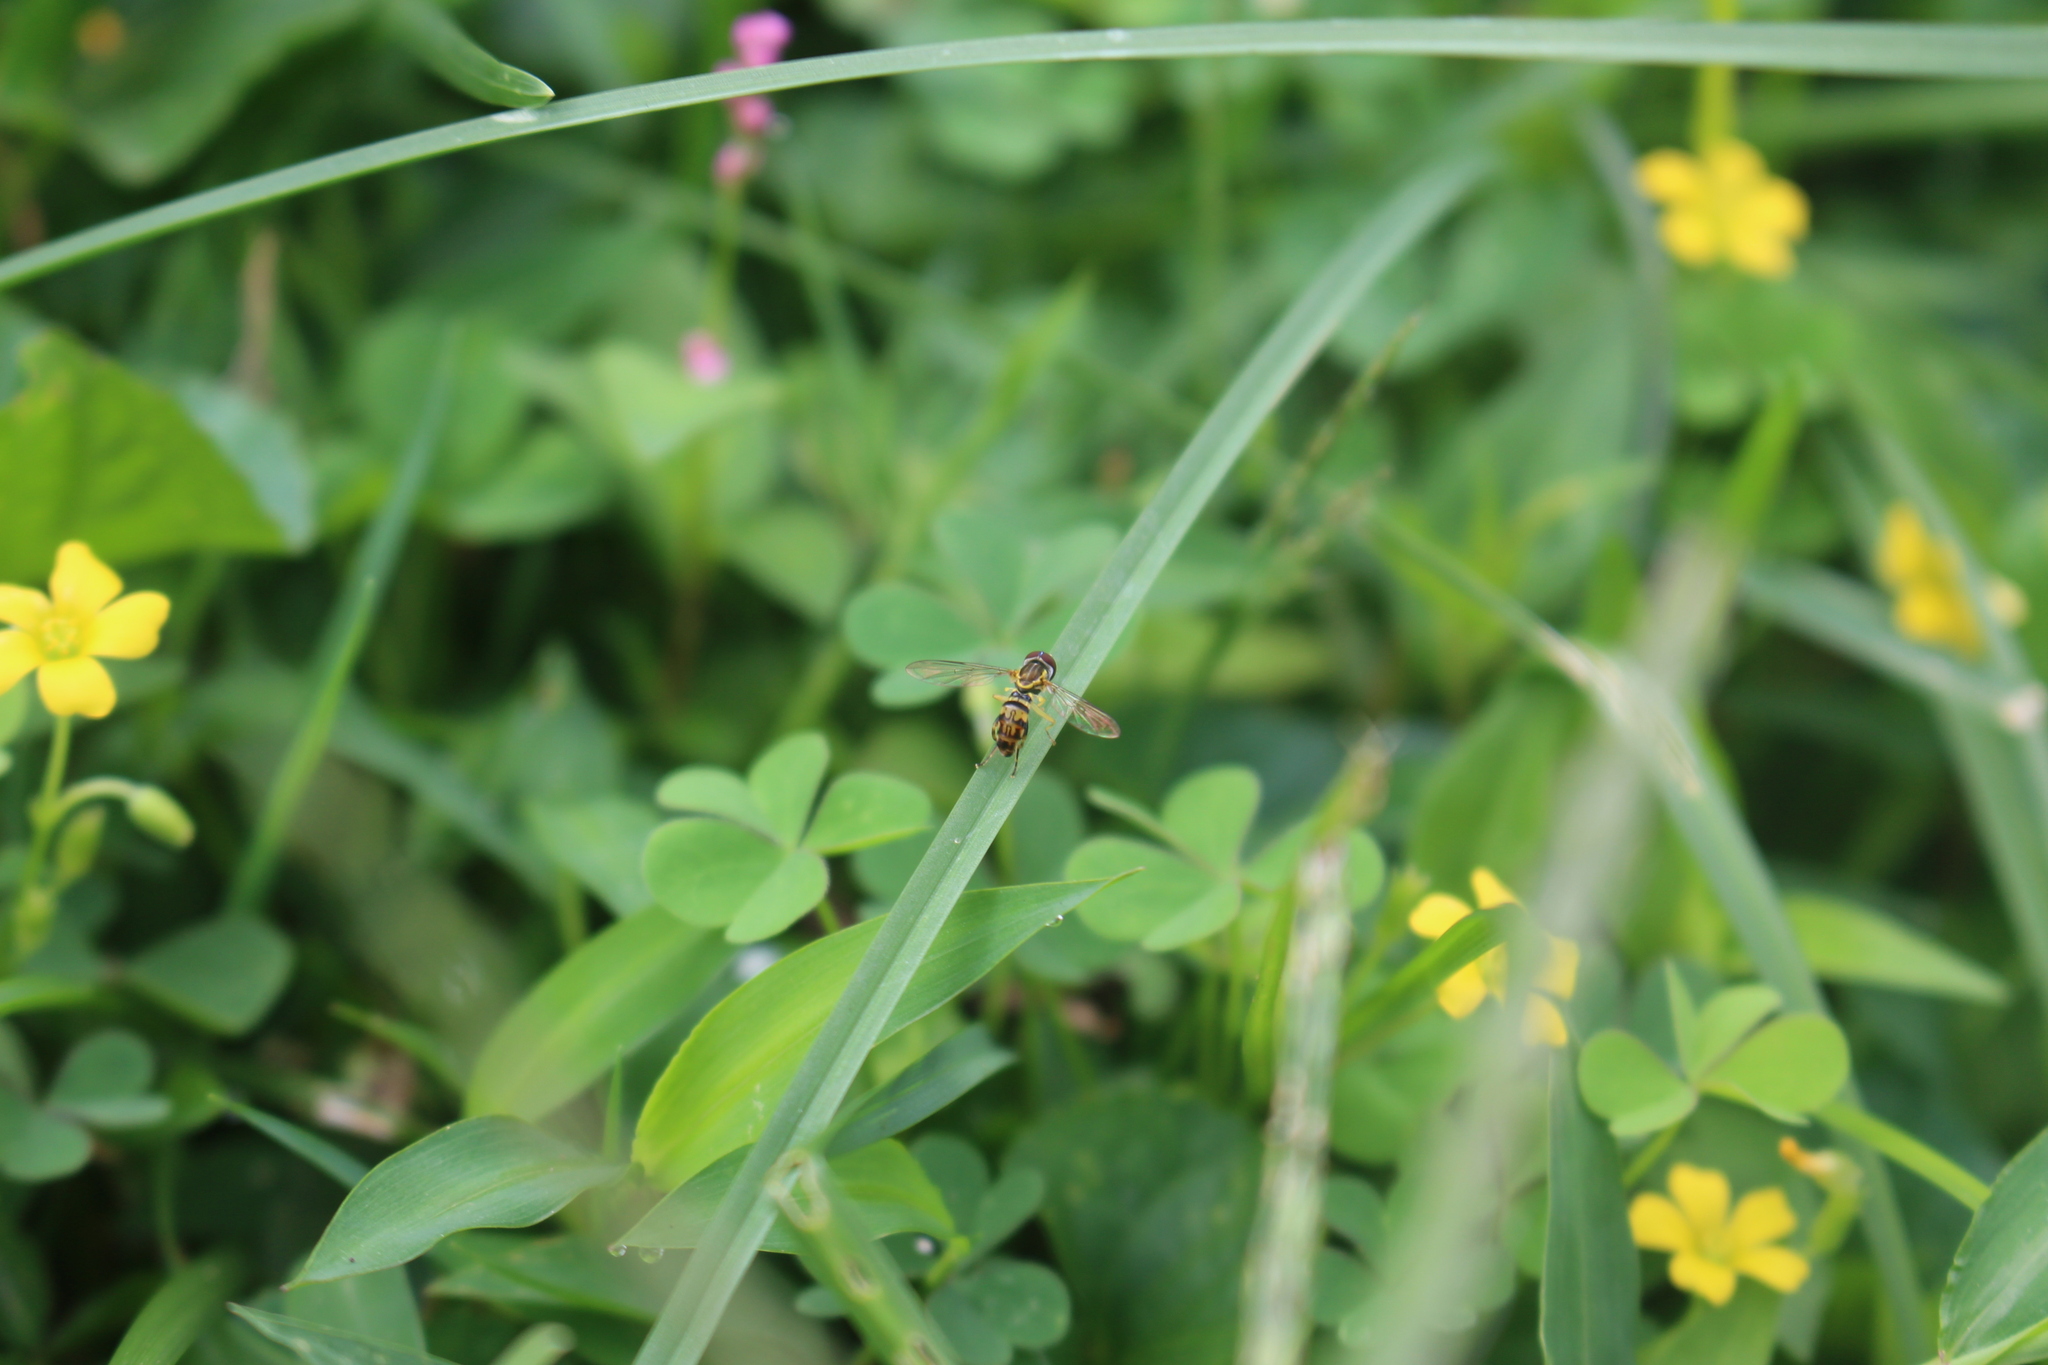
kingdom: Animalia
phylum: Arthropoda
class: Insecta
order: Diptera
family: Syrphidae
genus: Toxomerus
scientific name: Toxomerus geminatus
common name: Eastern calligrapher
